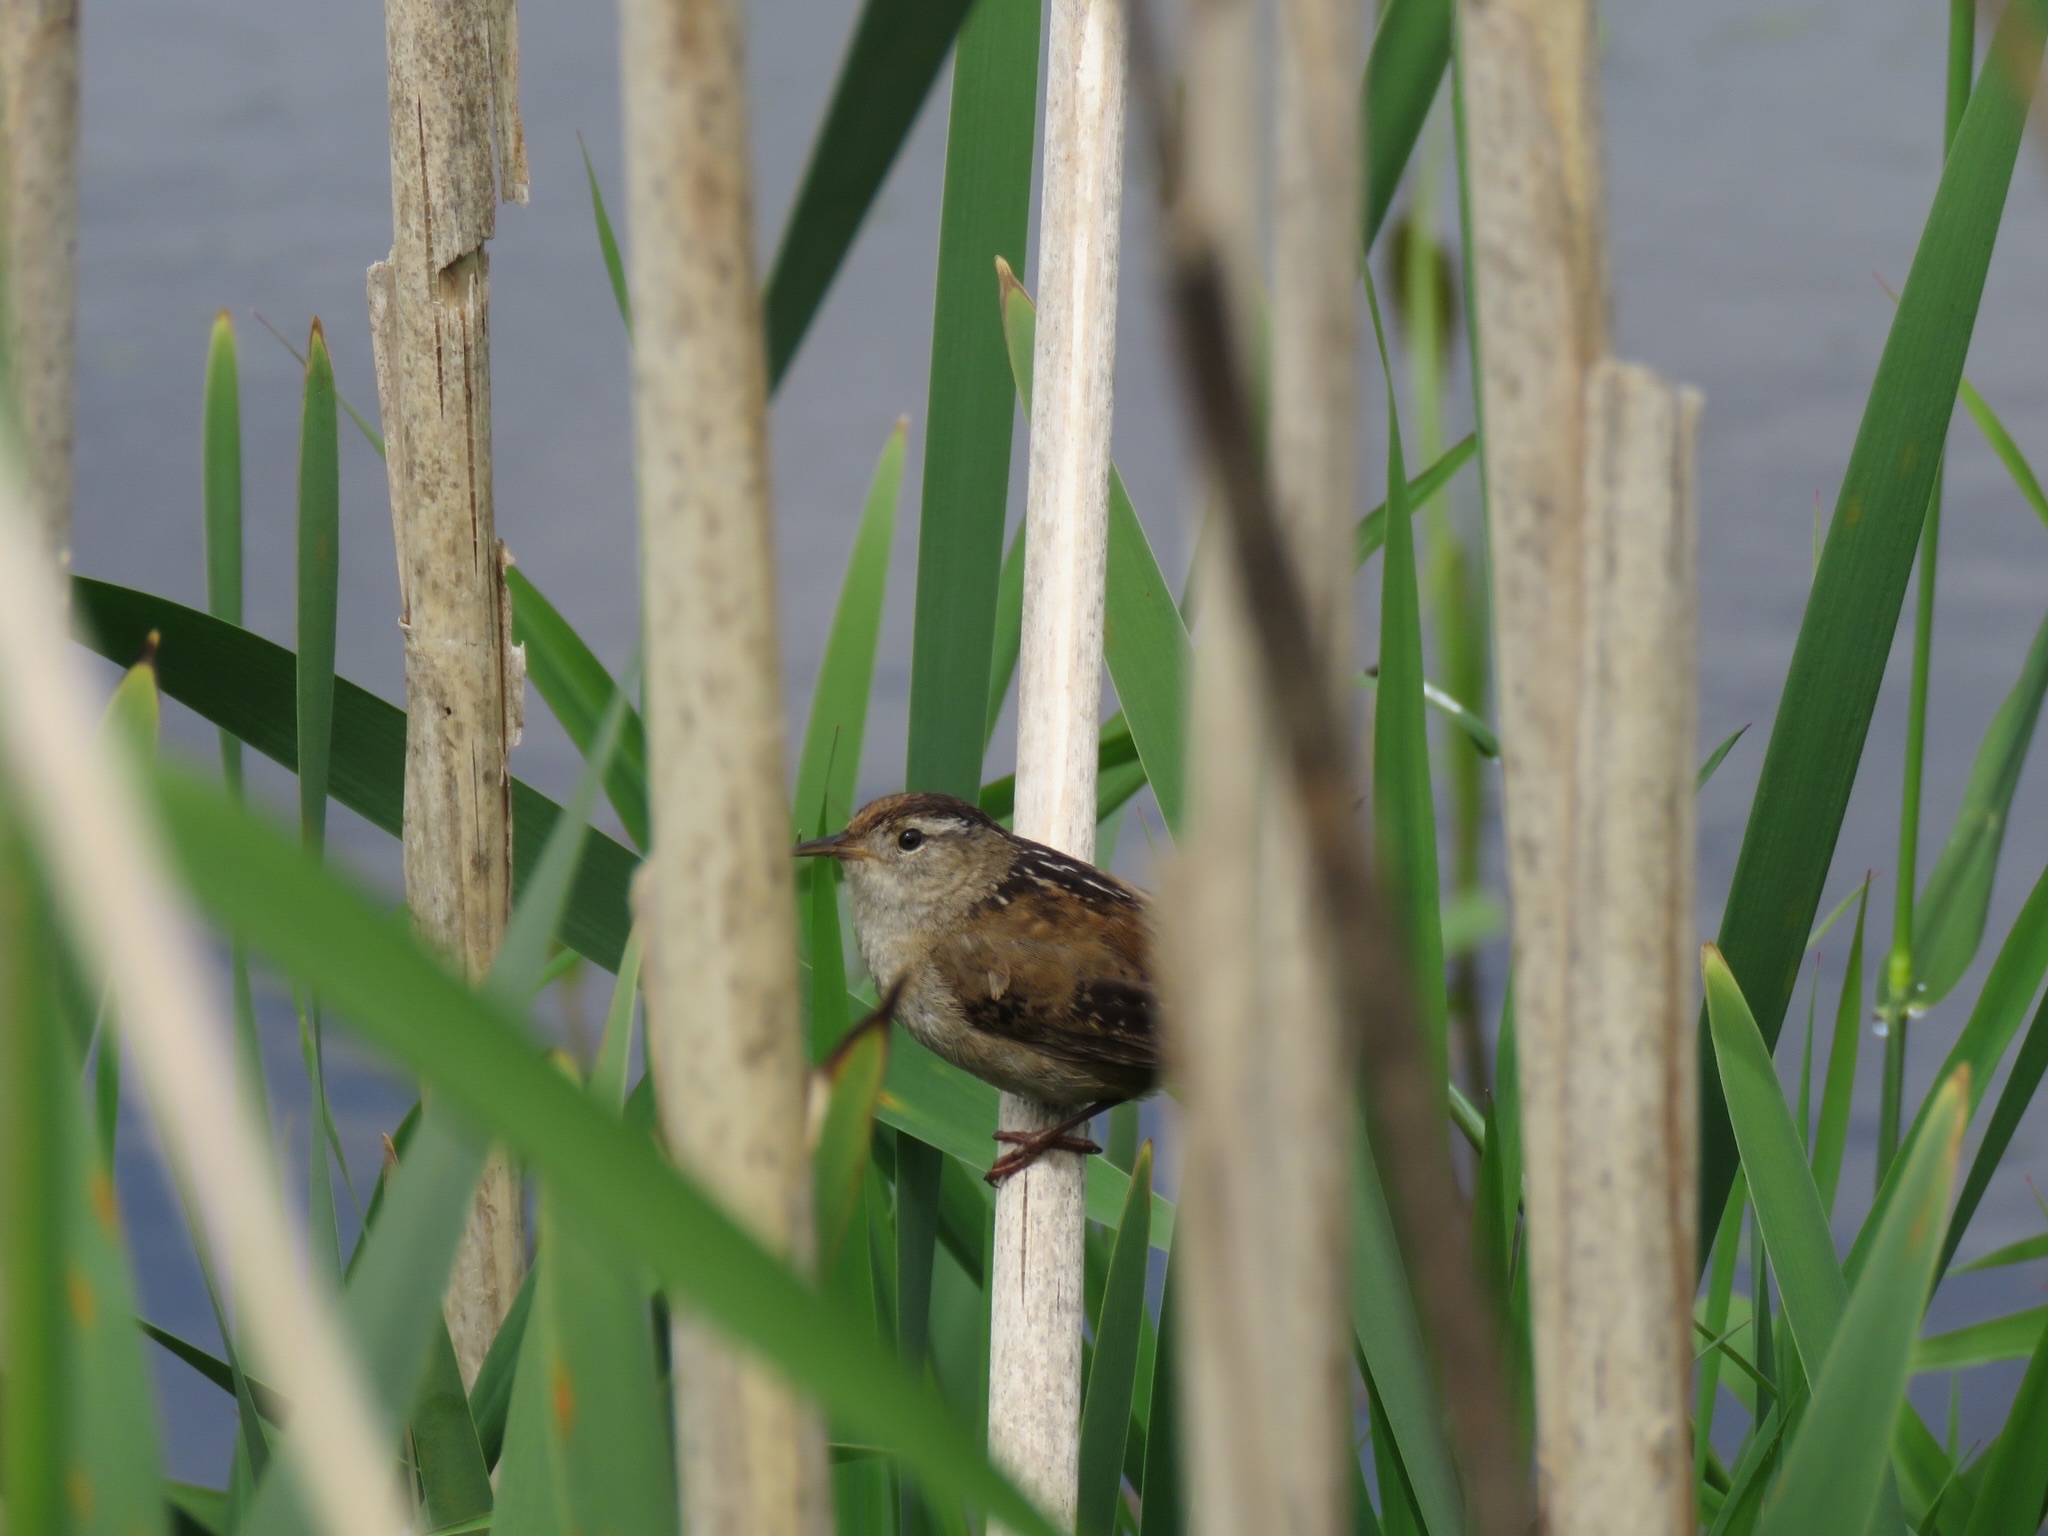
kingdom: Animalia
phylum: Chordata
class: Aves
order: Passeriformes
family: Troglodytidae
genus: Cistothorus
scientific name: Cistothorus palustris
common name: Marsh wren
